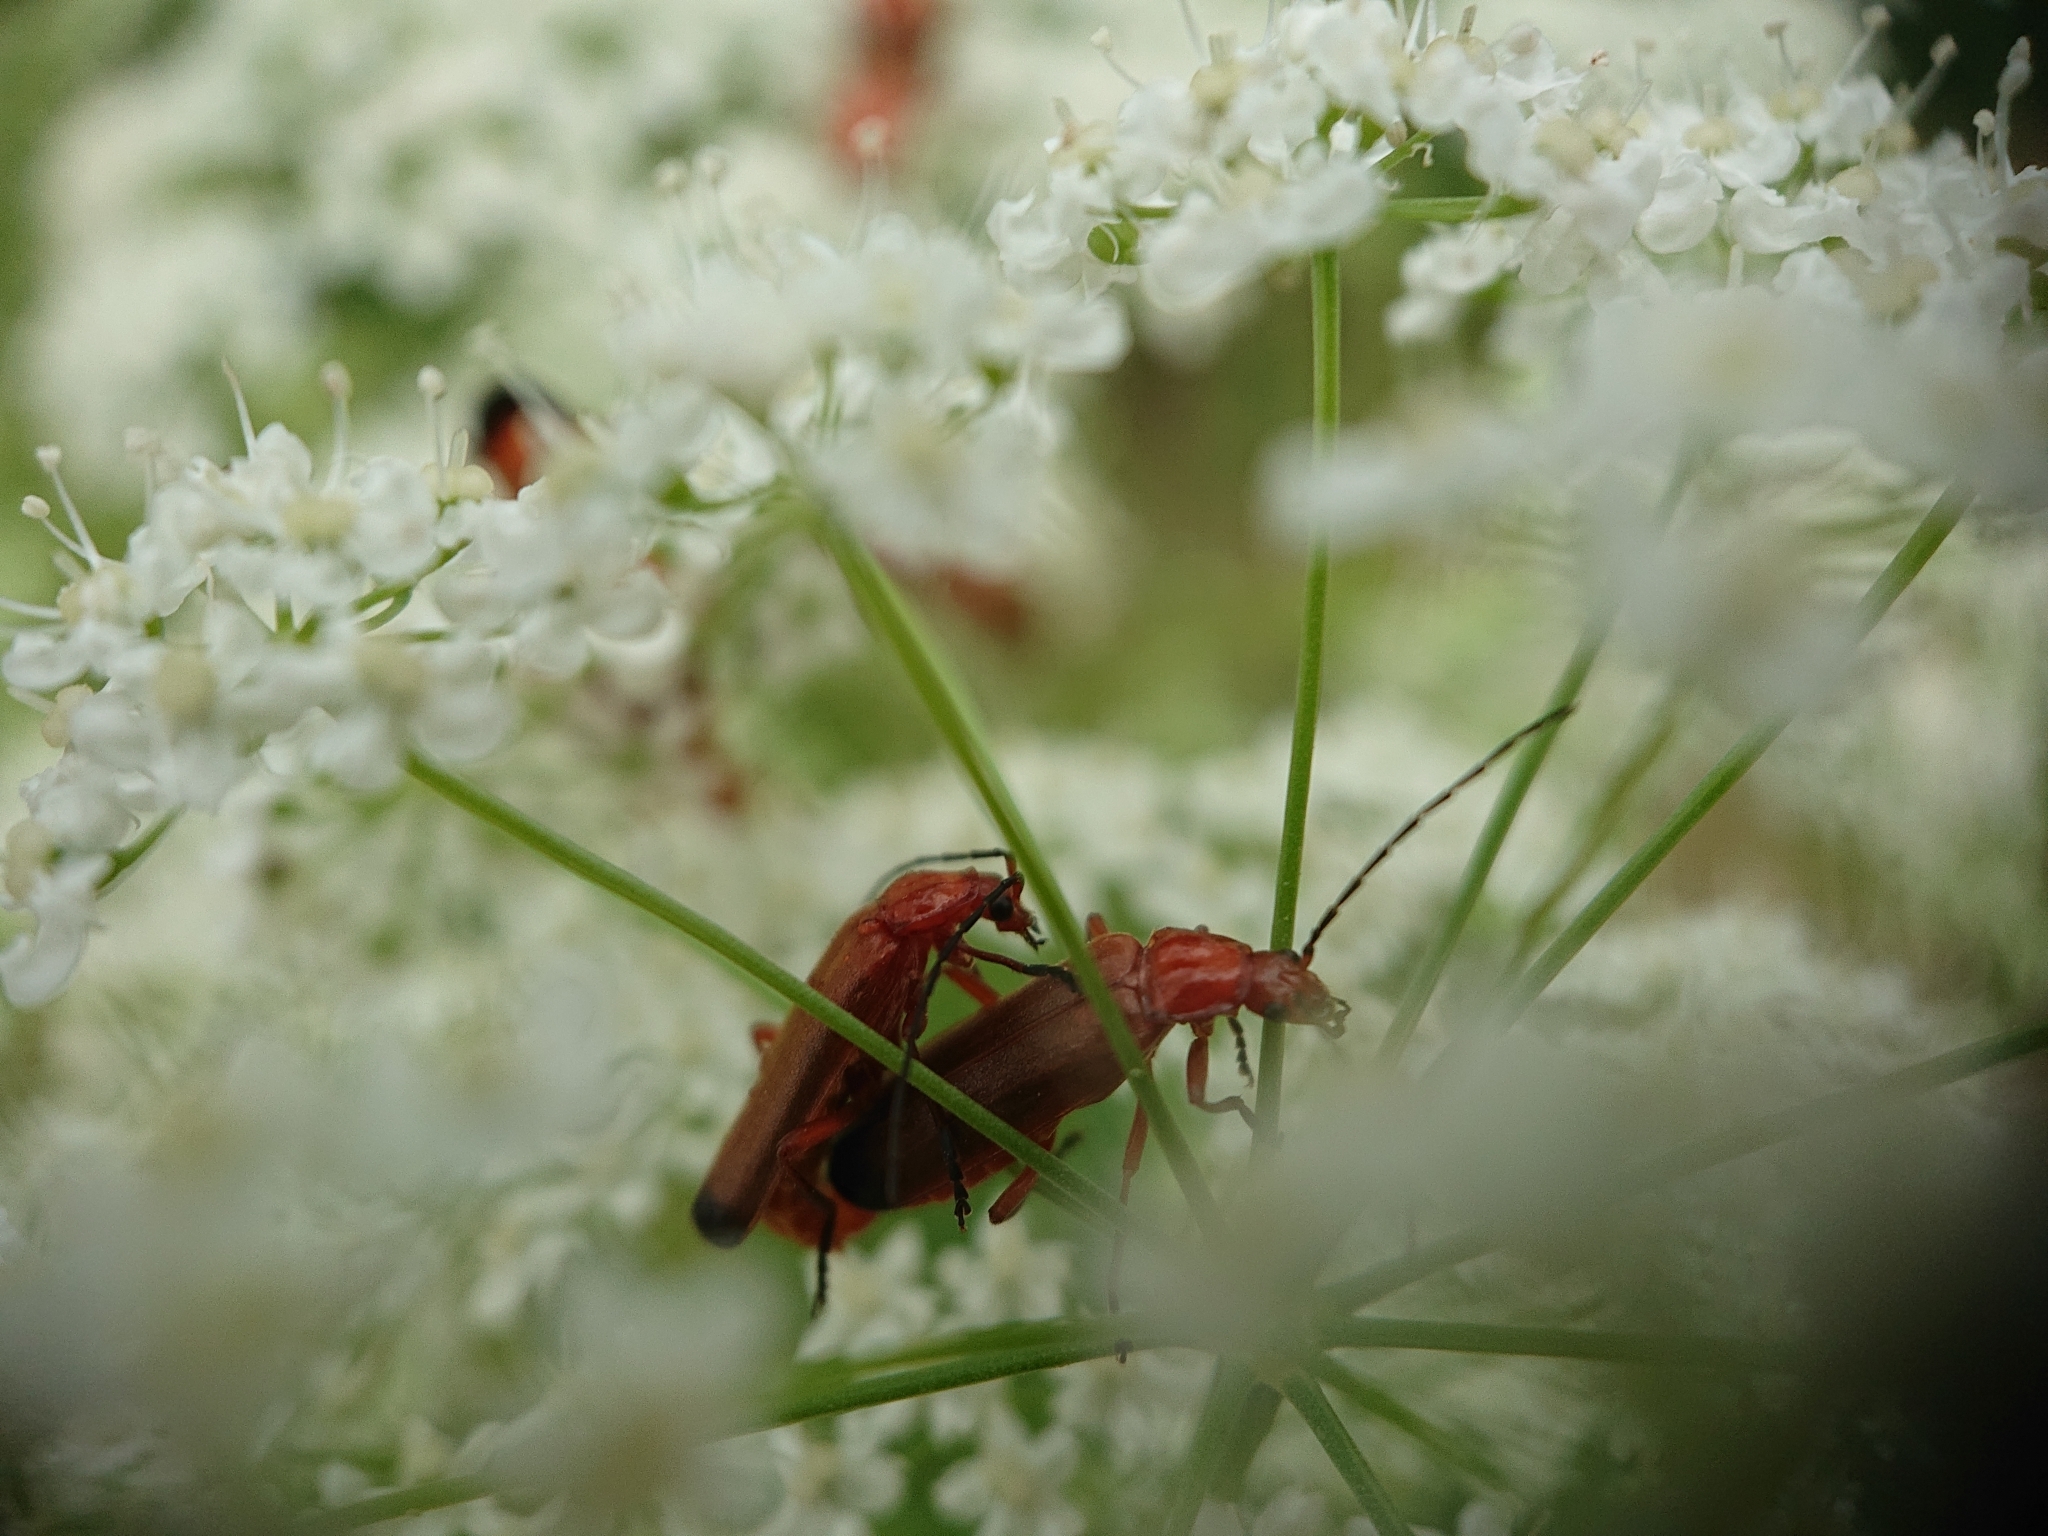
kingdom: Animalia
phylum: Arthropoda
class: Insecta
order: Coleoptera
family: Cantharidae
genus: Rhagonycha
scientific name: Rhagonycha fulva
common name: Common red soldier beetle
